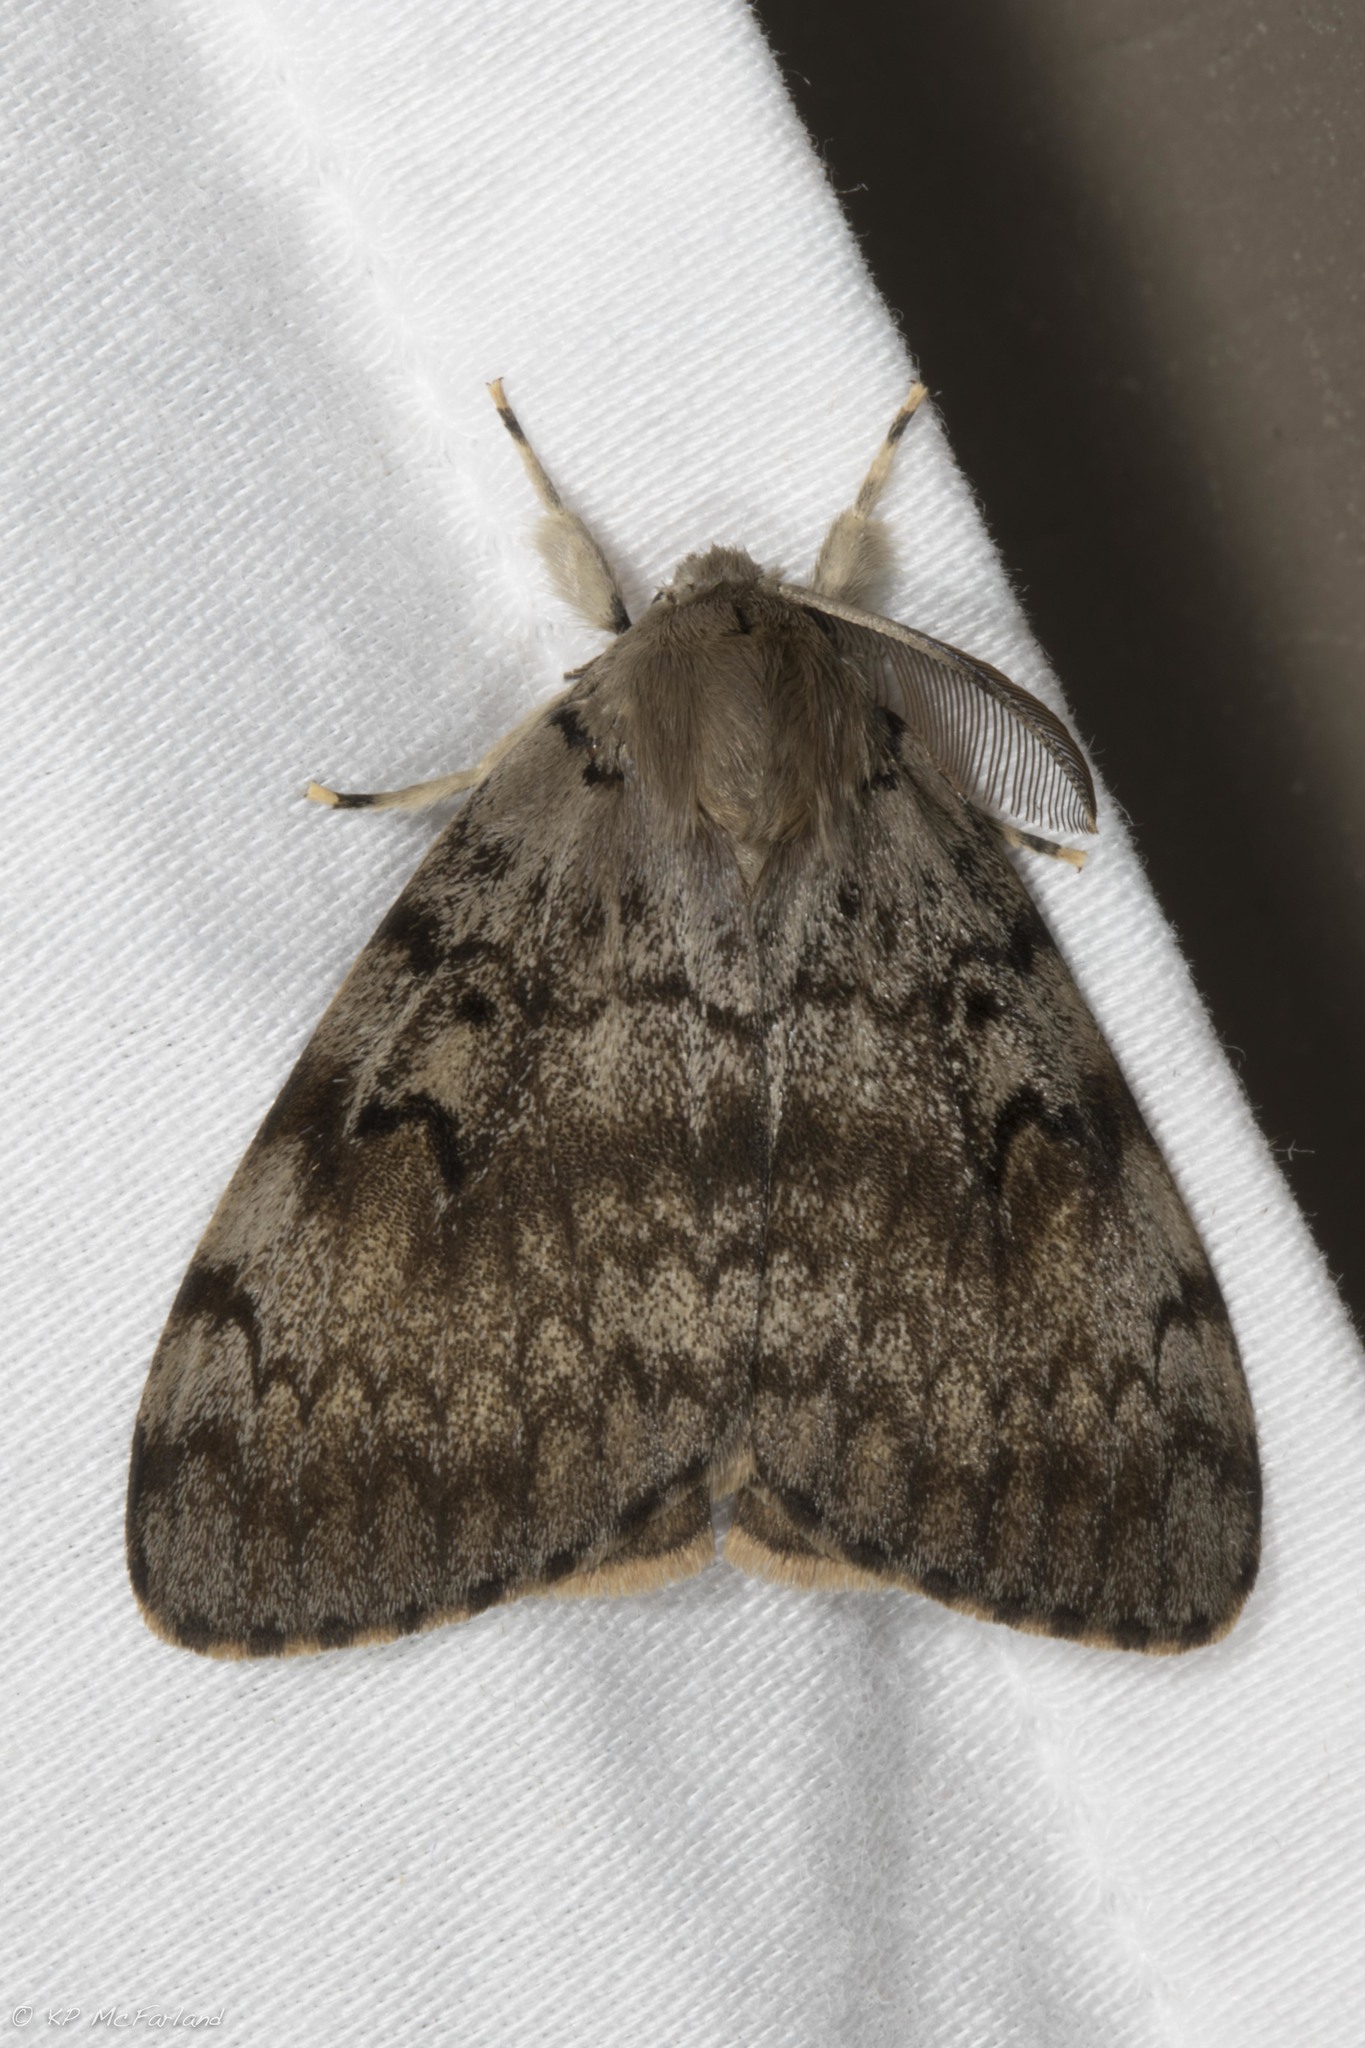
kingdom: Animalia
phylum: Arthropoda
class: Insecta
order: Lepidoptera
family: Erebidae
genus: Lymantria
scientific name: Lymantria dispar
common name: Gypsy moth
